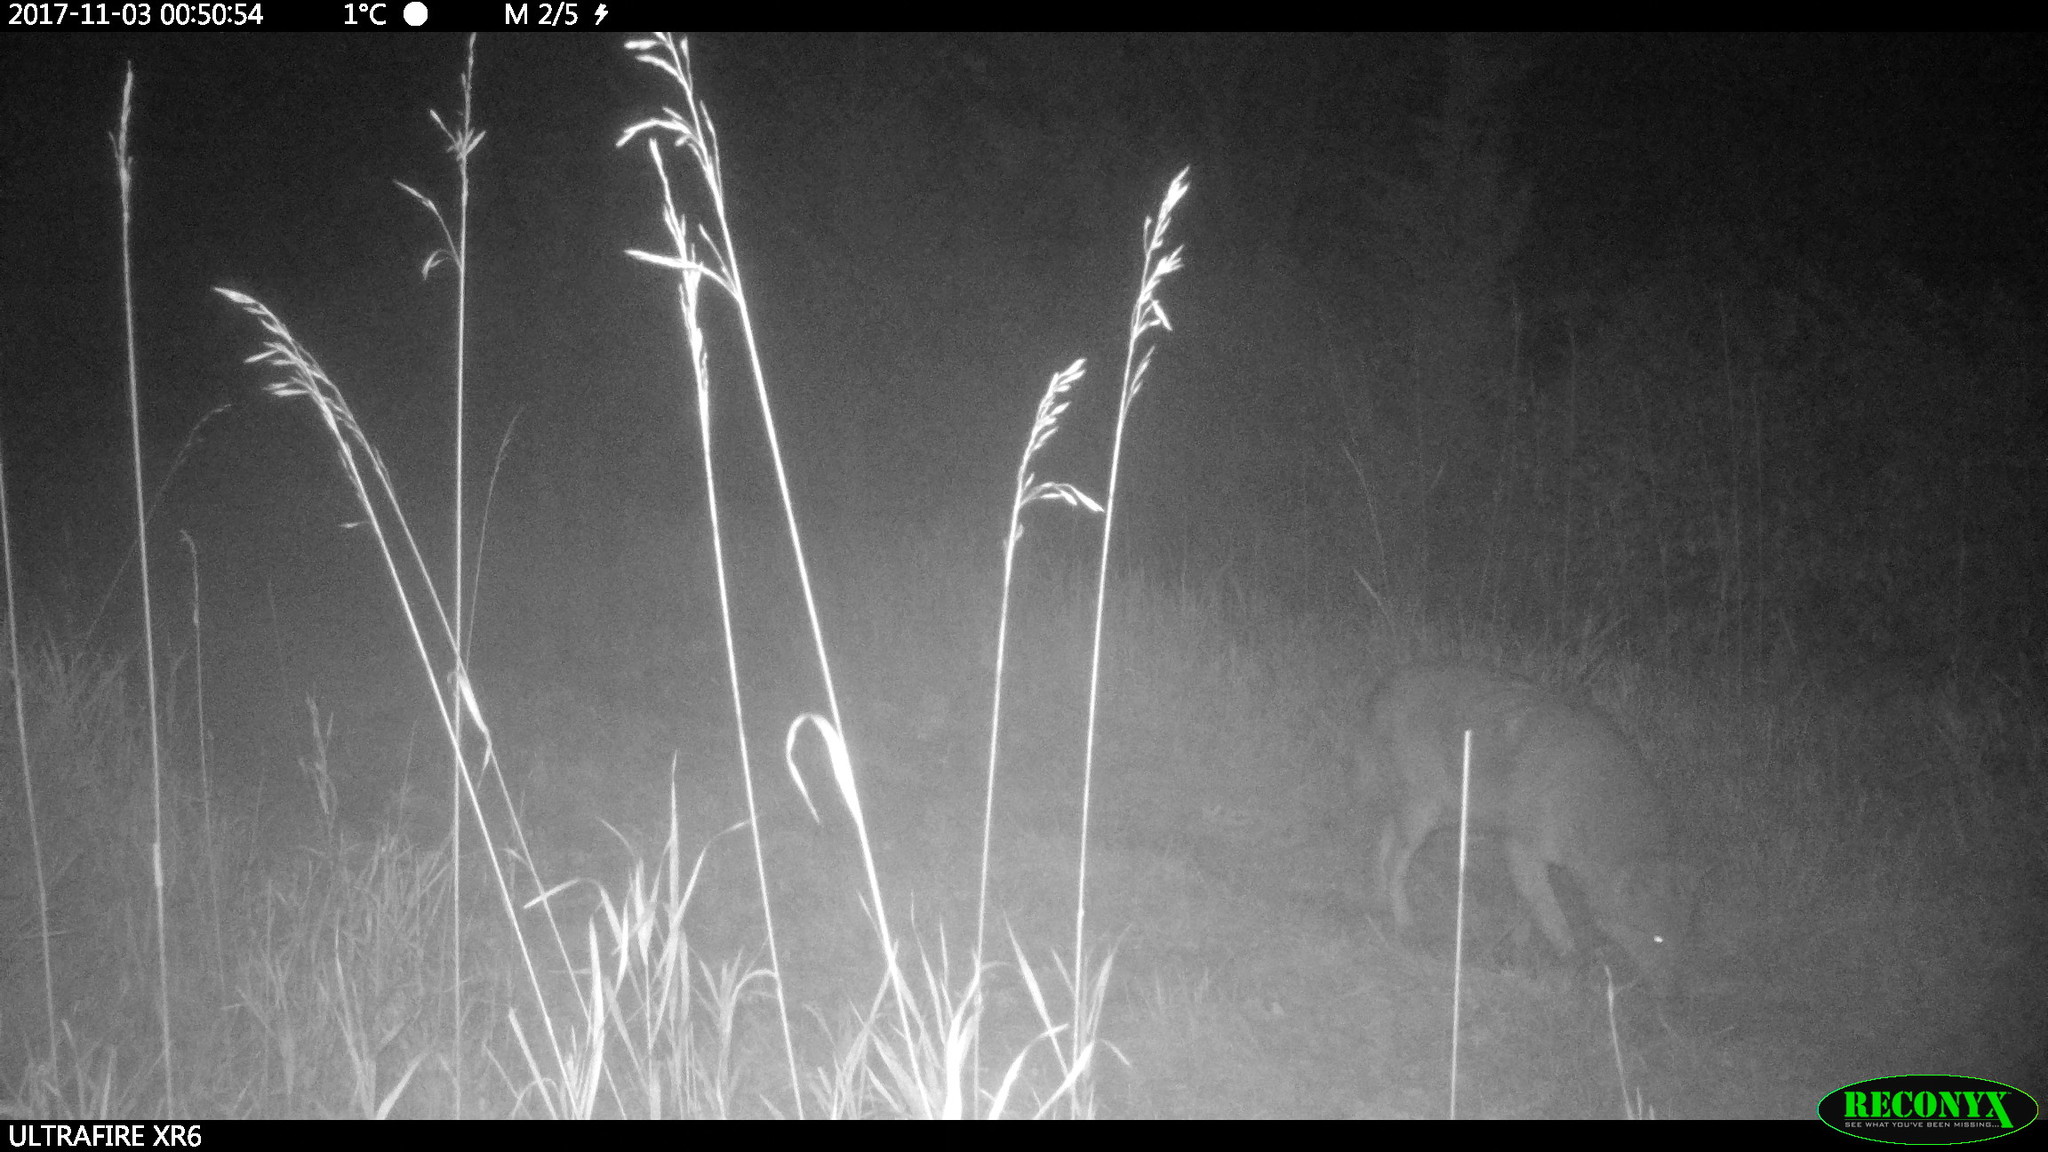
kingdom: Animalia
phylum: Chordata
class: Mammalia
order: Carnivora
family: Canidae
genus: Canis
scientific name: Canis latrans
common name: Coyote
